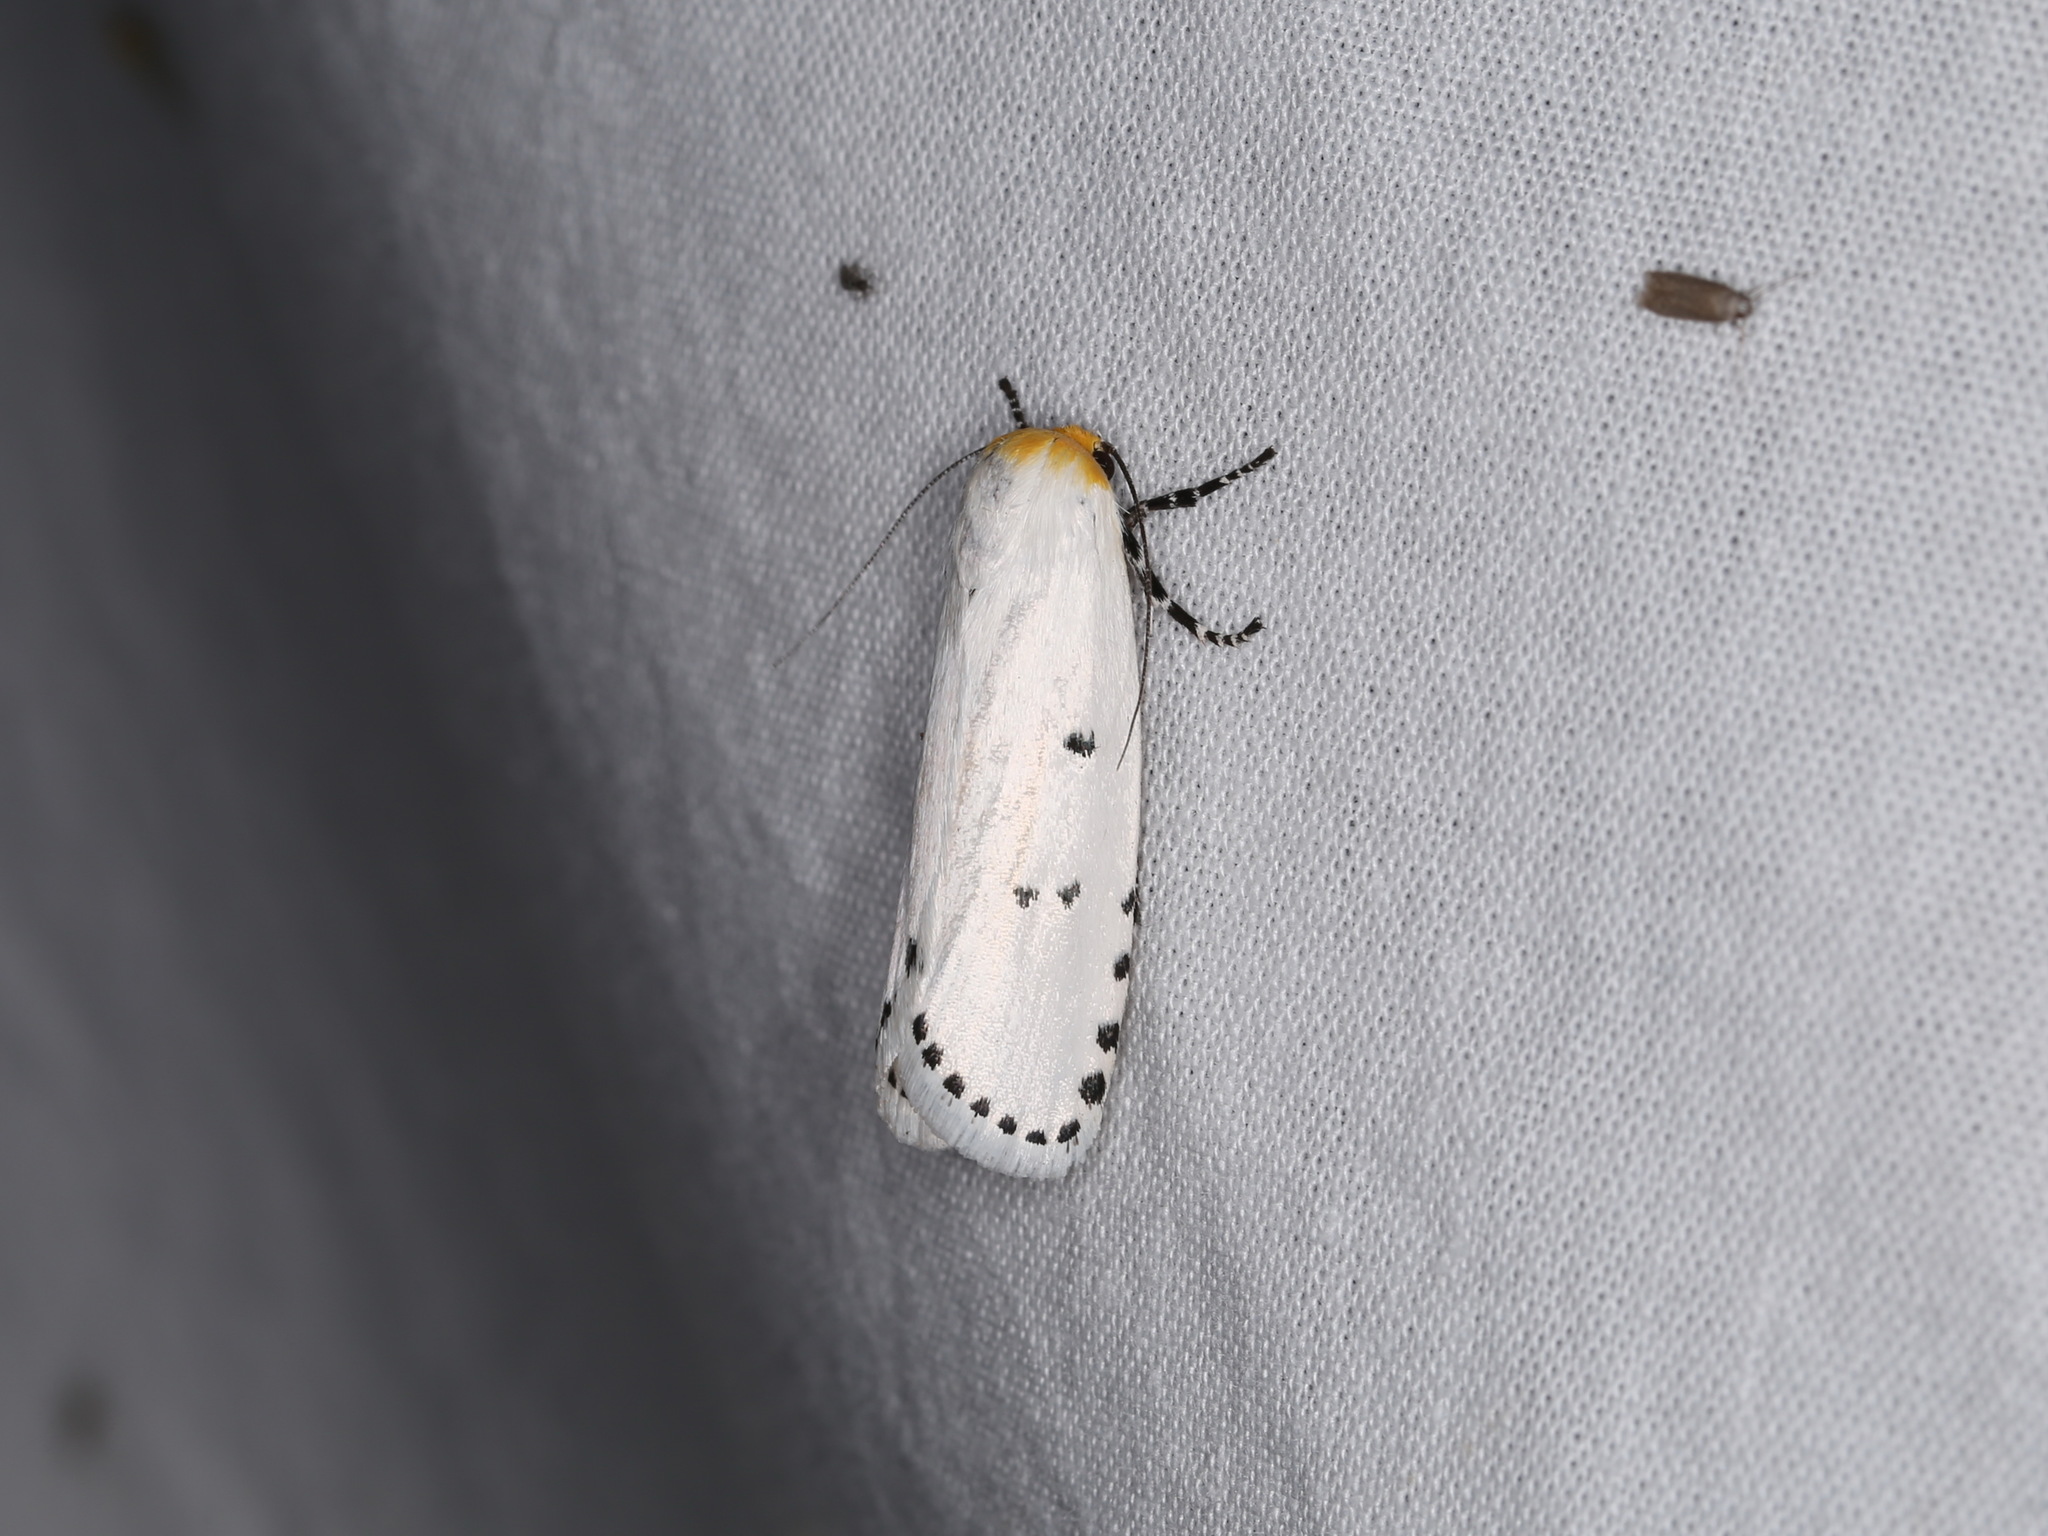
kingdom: Animalia
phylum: Arthropoda
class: Insecta
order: Lepidoptera
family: Xyloryctidae
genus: Cryptophasa
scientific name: Cryptophasa delocentra
